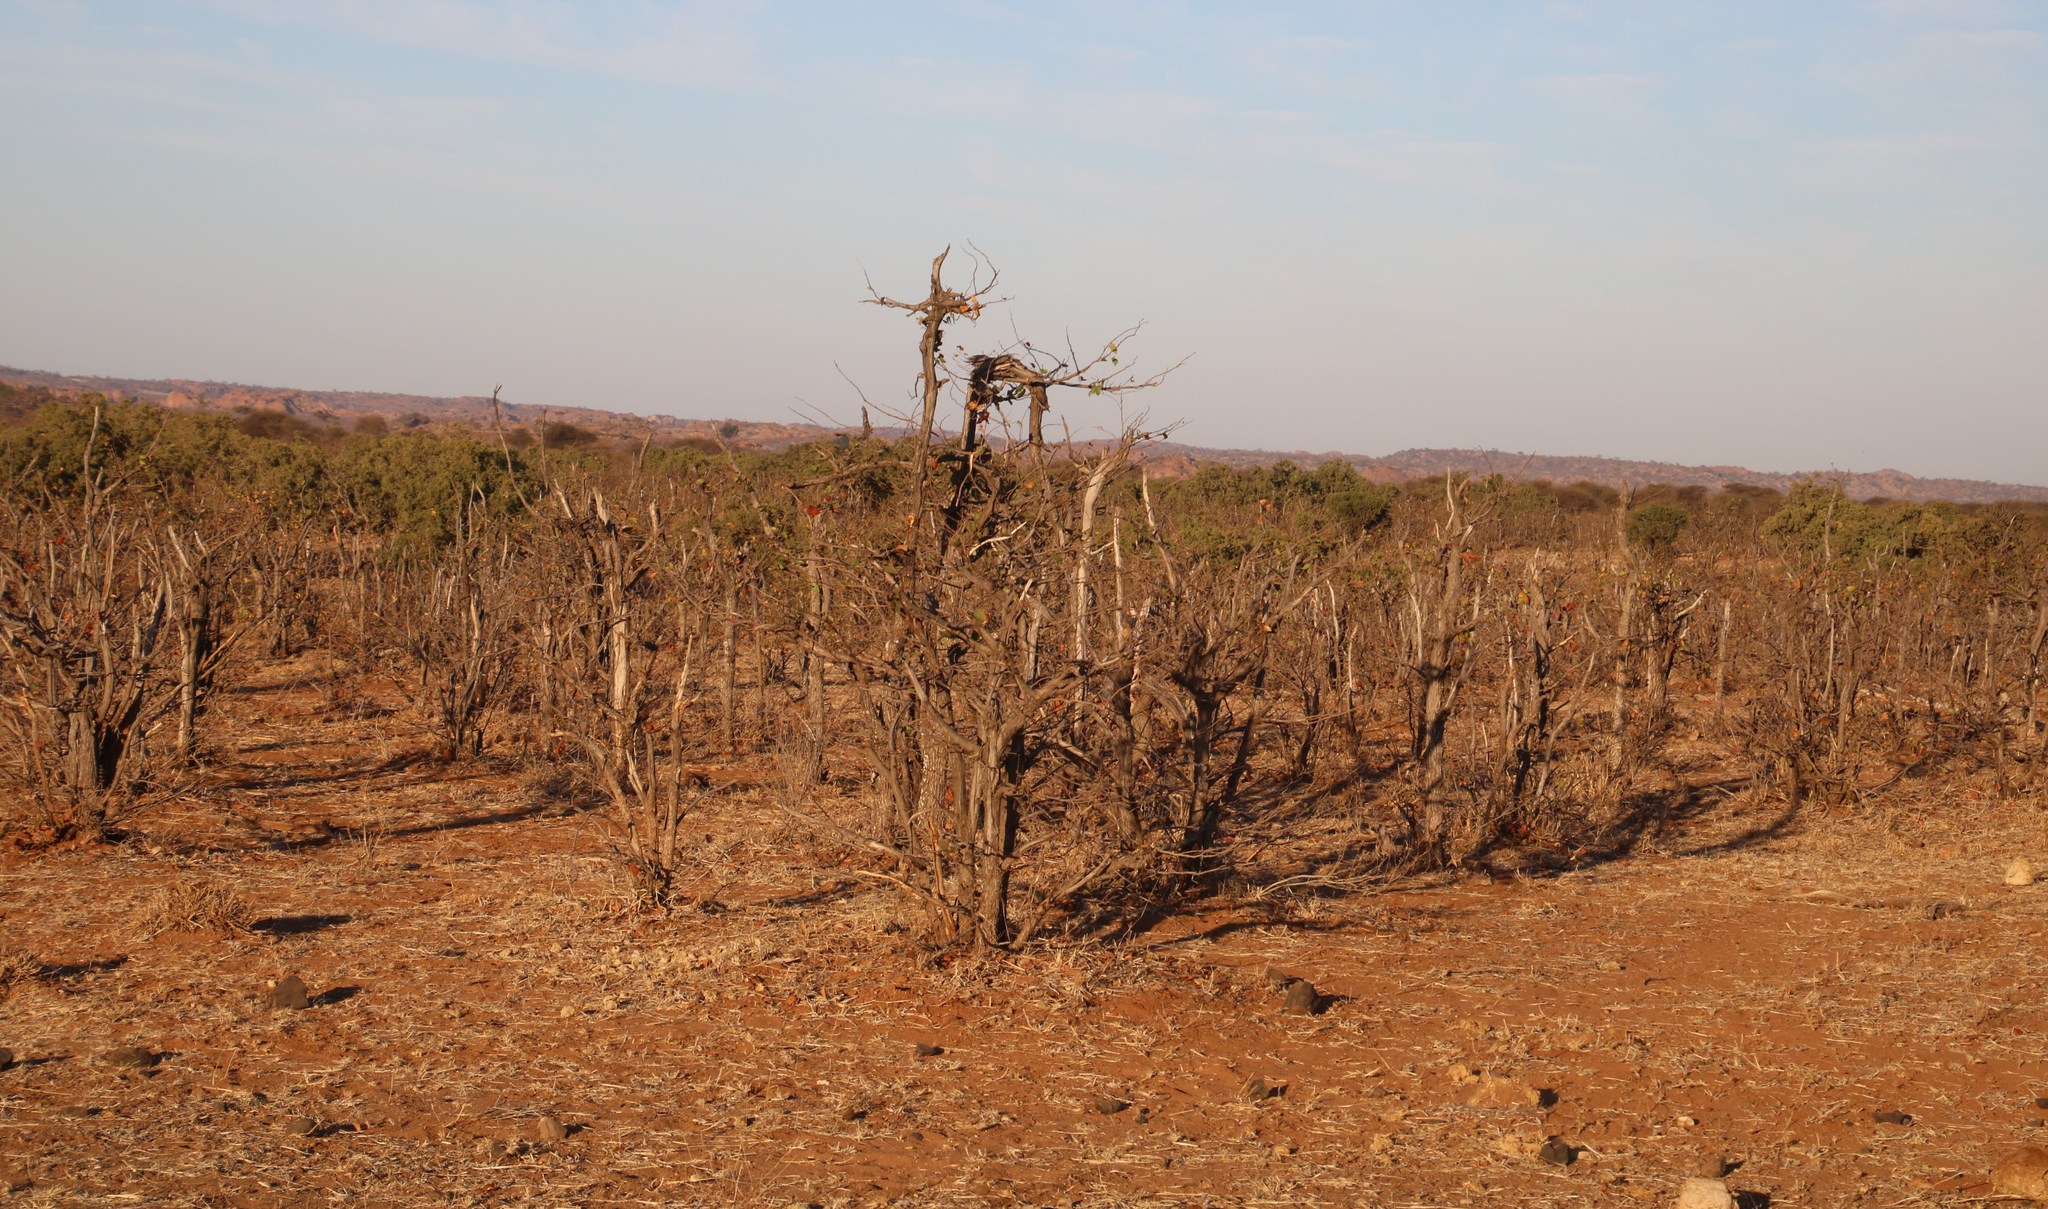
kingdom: Animalia
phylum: Chordata
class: Mammalia
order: Proboscidea
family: Elephantidae
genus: Loxodonta
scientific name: Loxodonta africana
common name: African elephant
